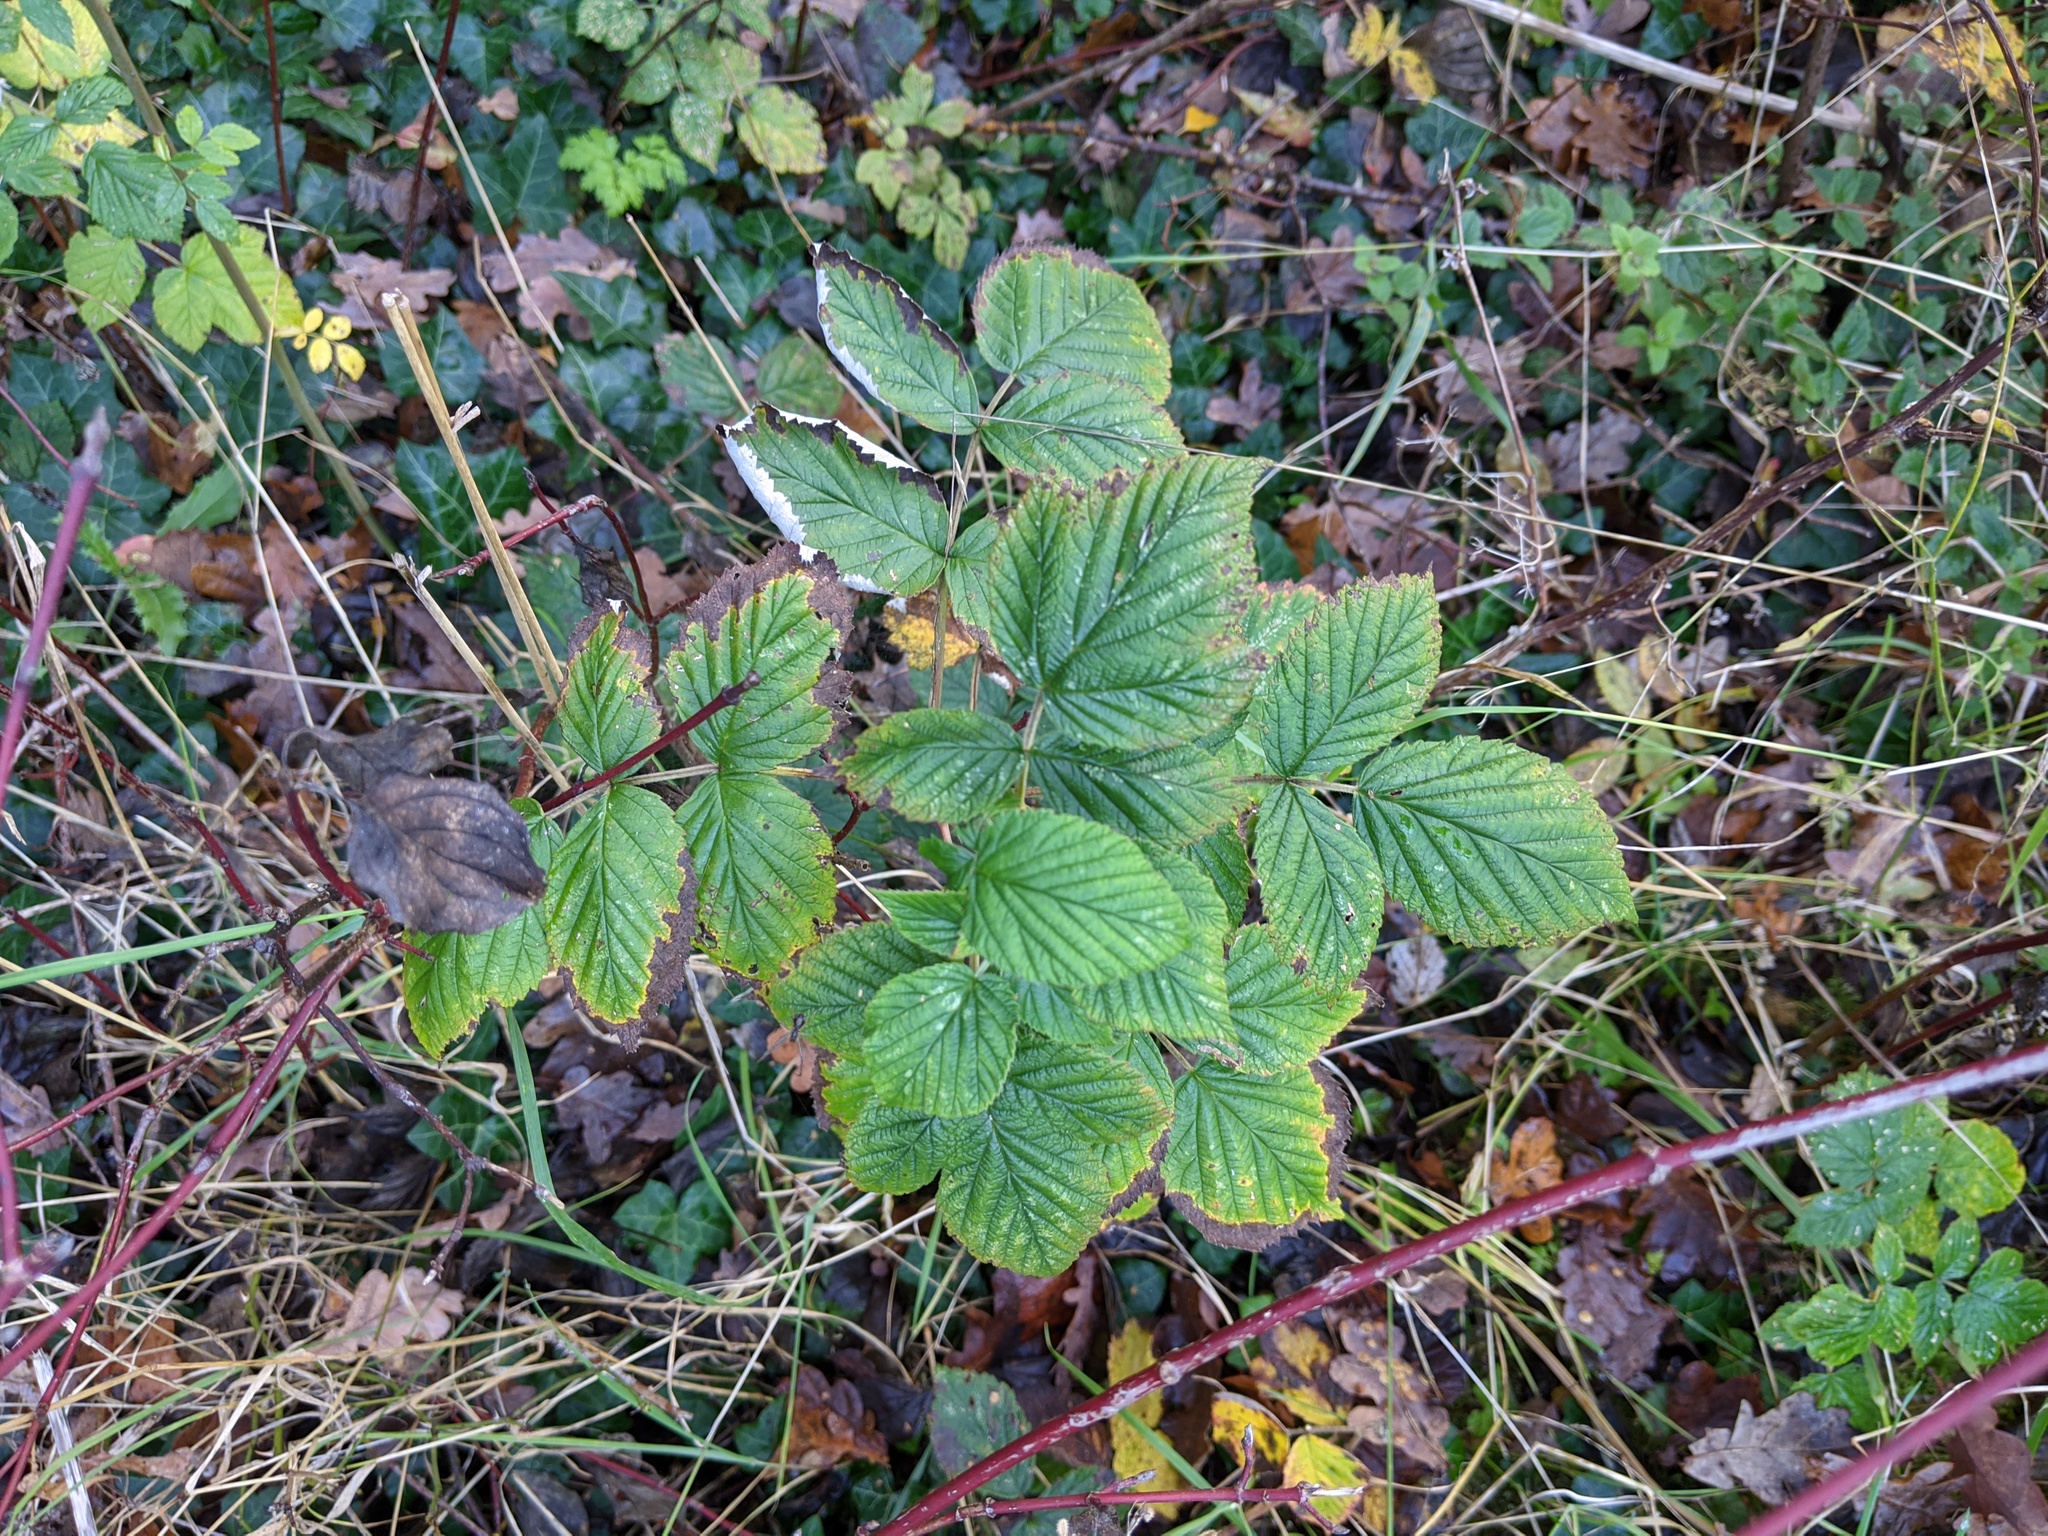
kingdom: Plantae
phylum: Tracheophyta
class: Magnoliopsida
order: Rosales
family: Rosaceae
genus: Rubus
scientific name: Rubus idaeus
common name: Raspberry
